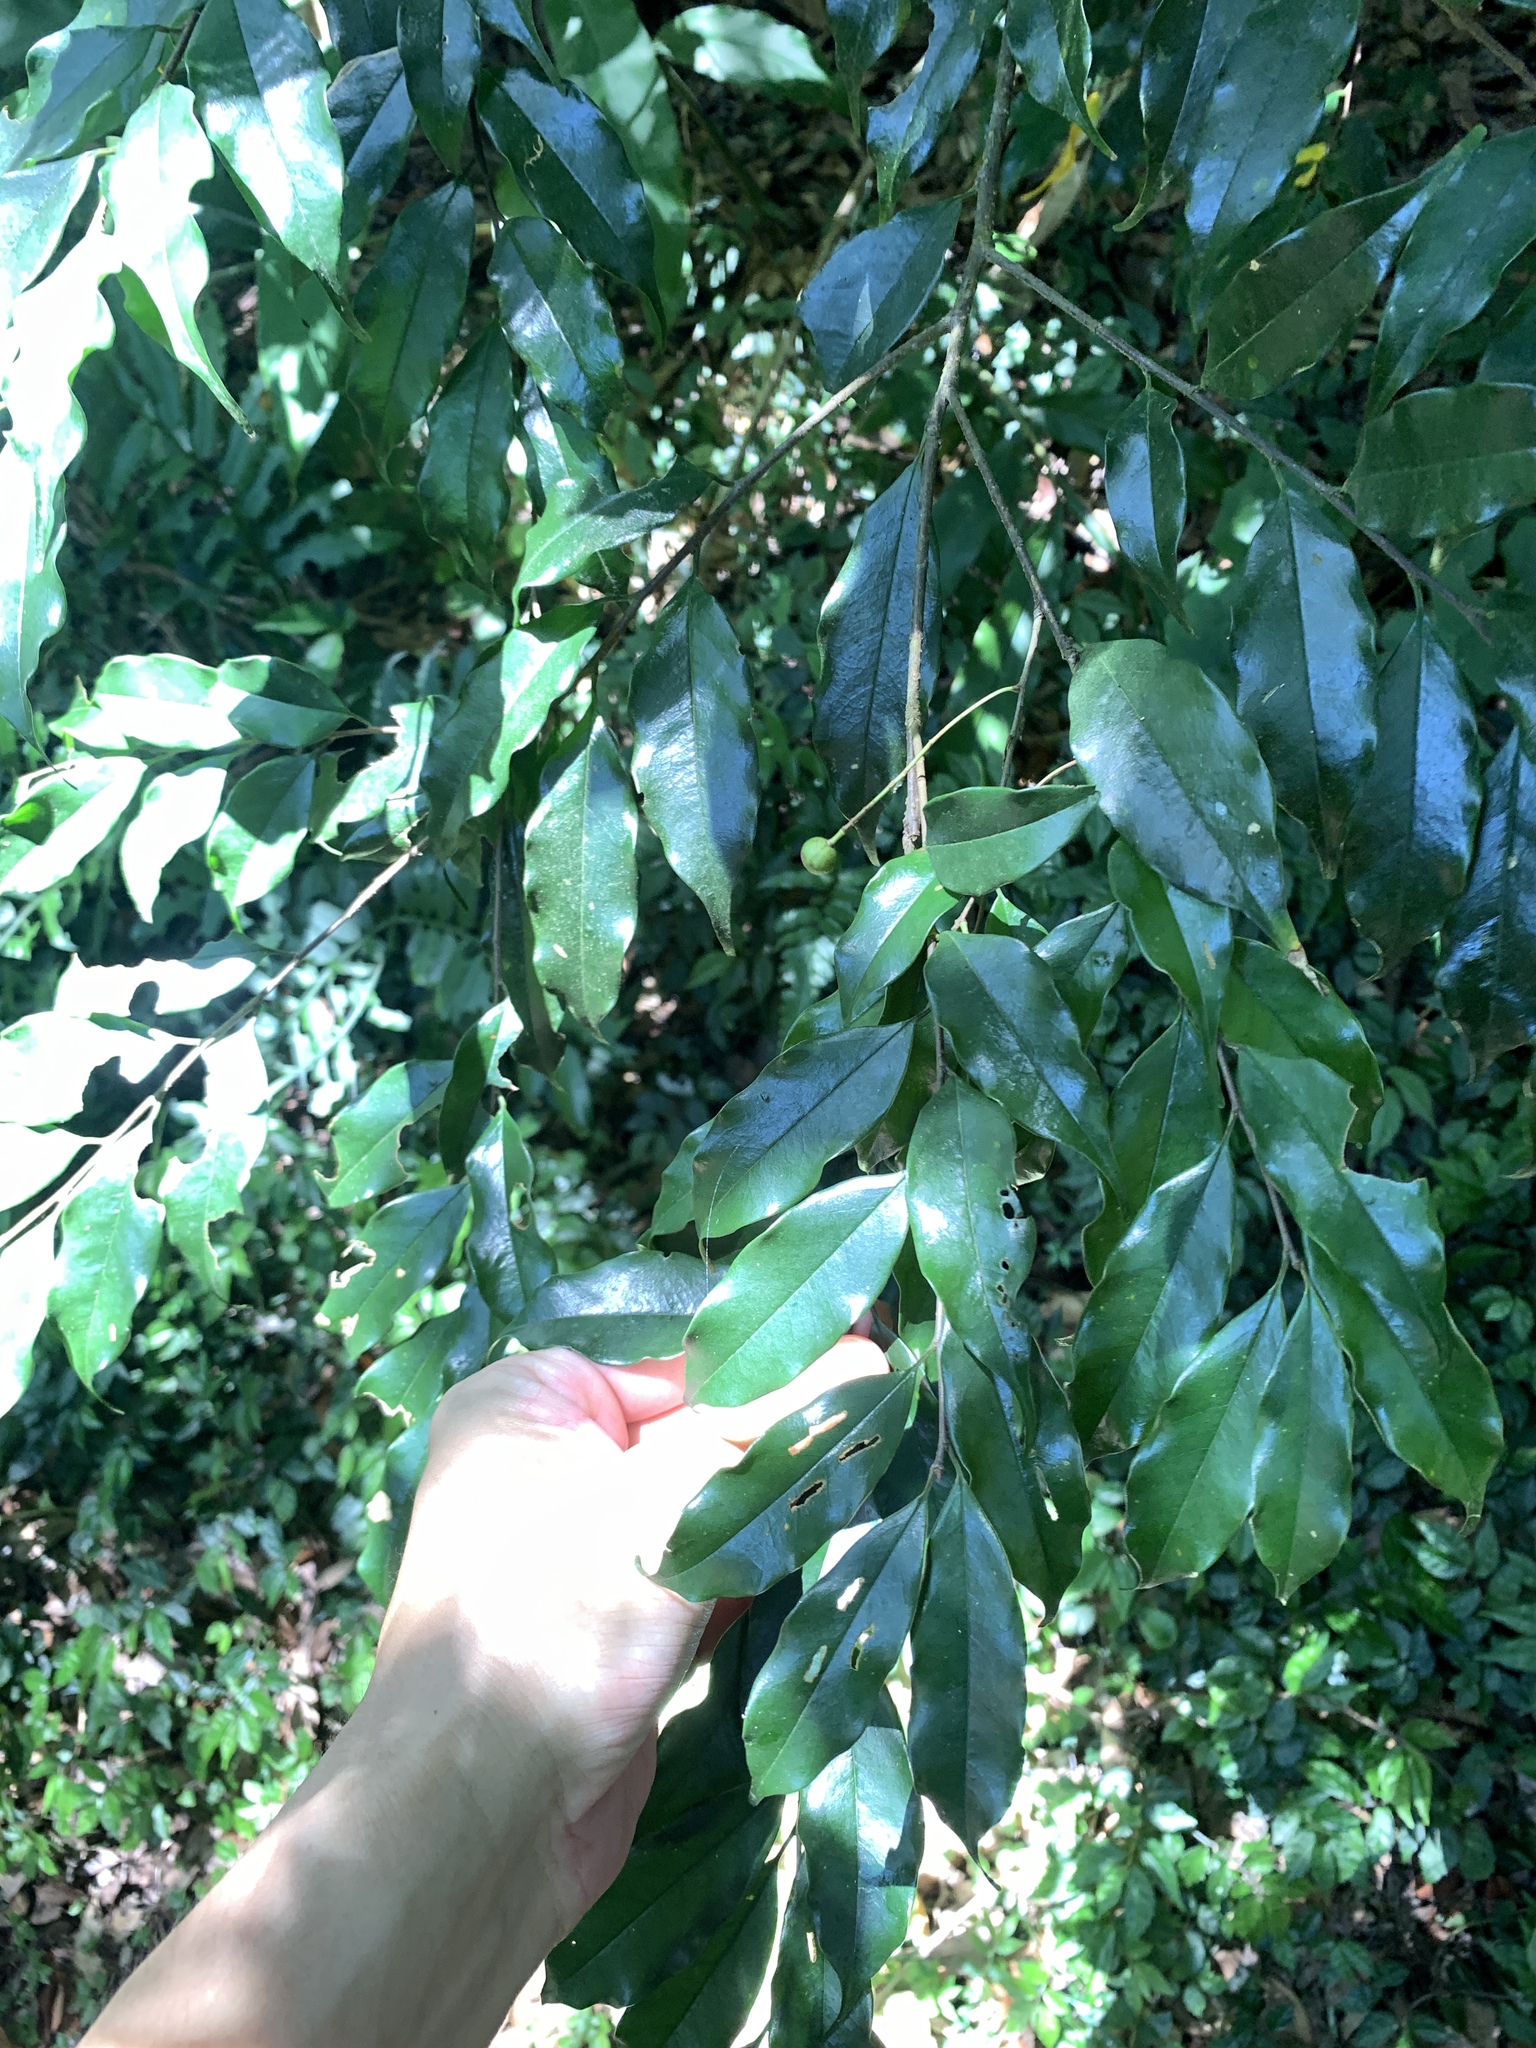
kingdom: Plantae
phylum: Tracheophyta
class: Magnoliopsida
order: Rosales
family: Rosaceae
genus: Prunus
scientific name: Prunus phaeosticta
